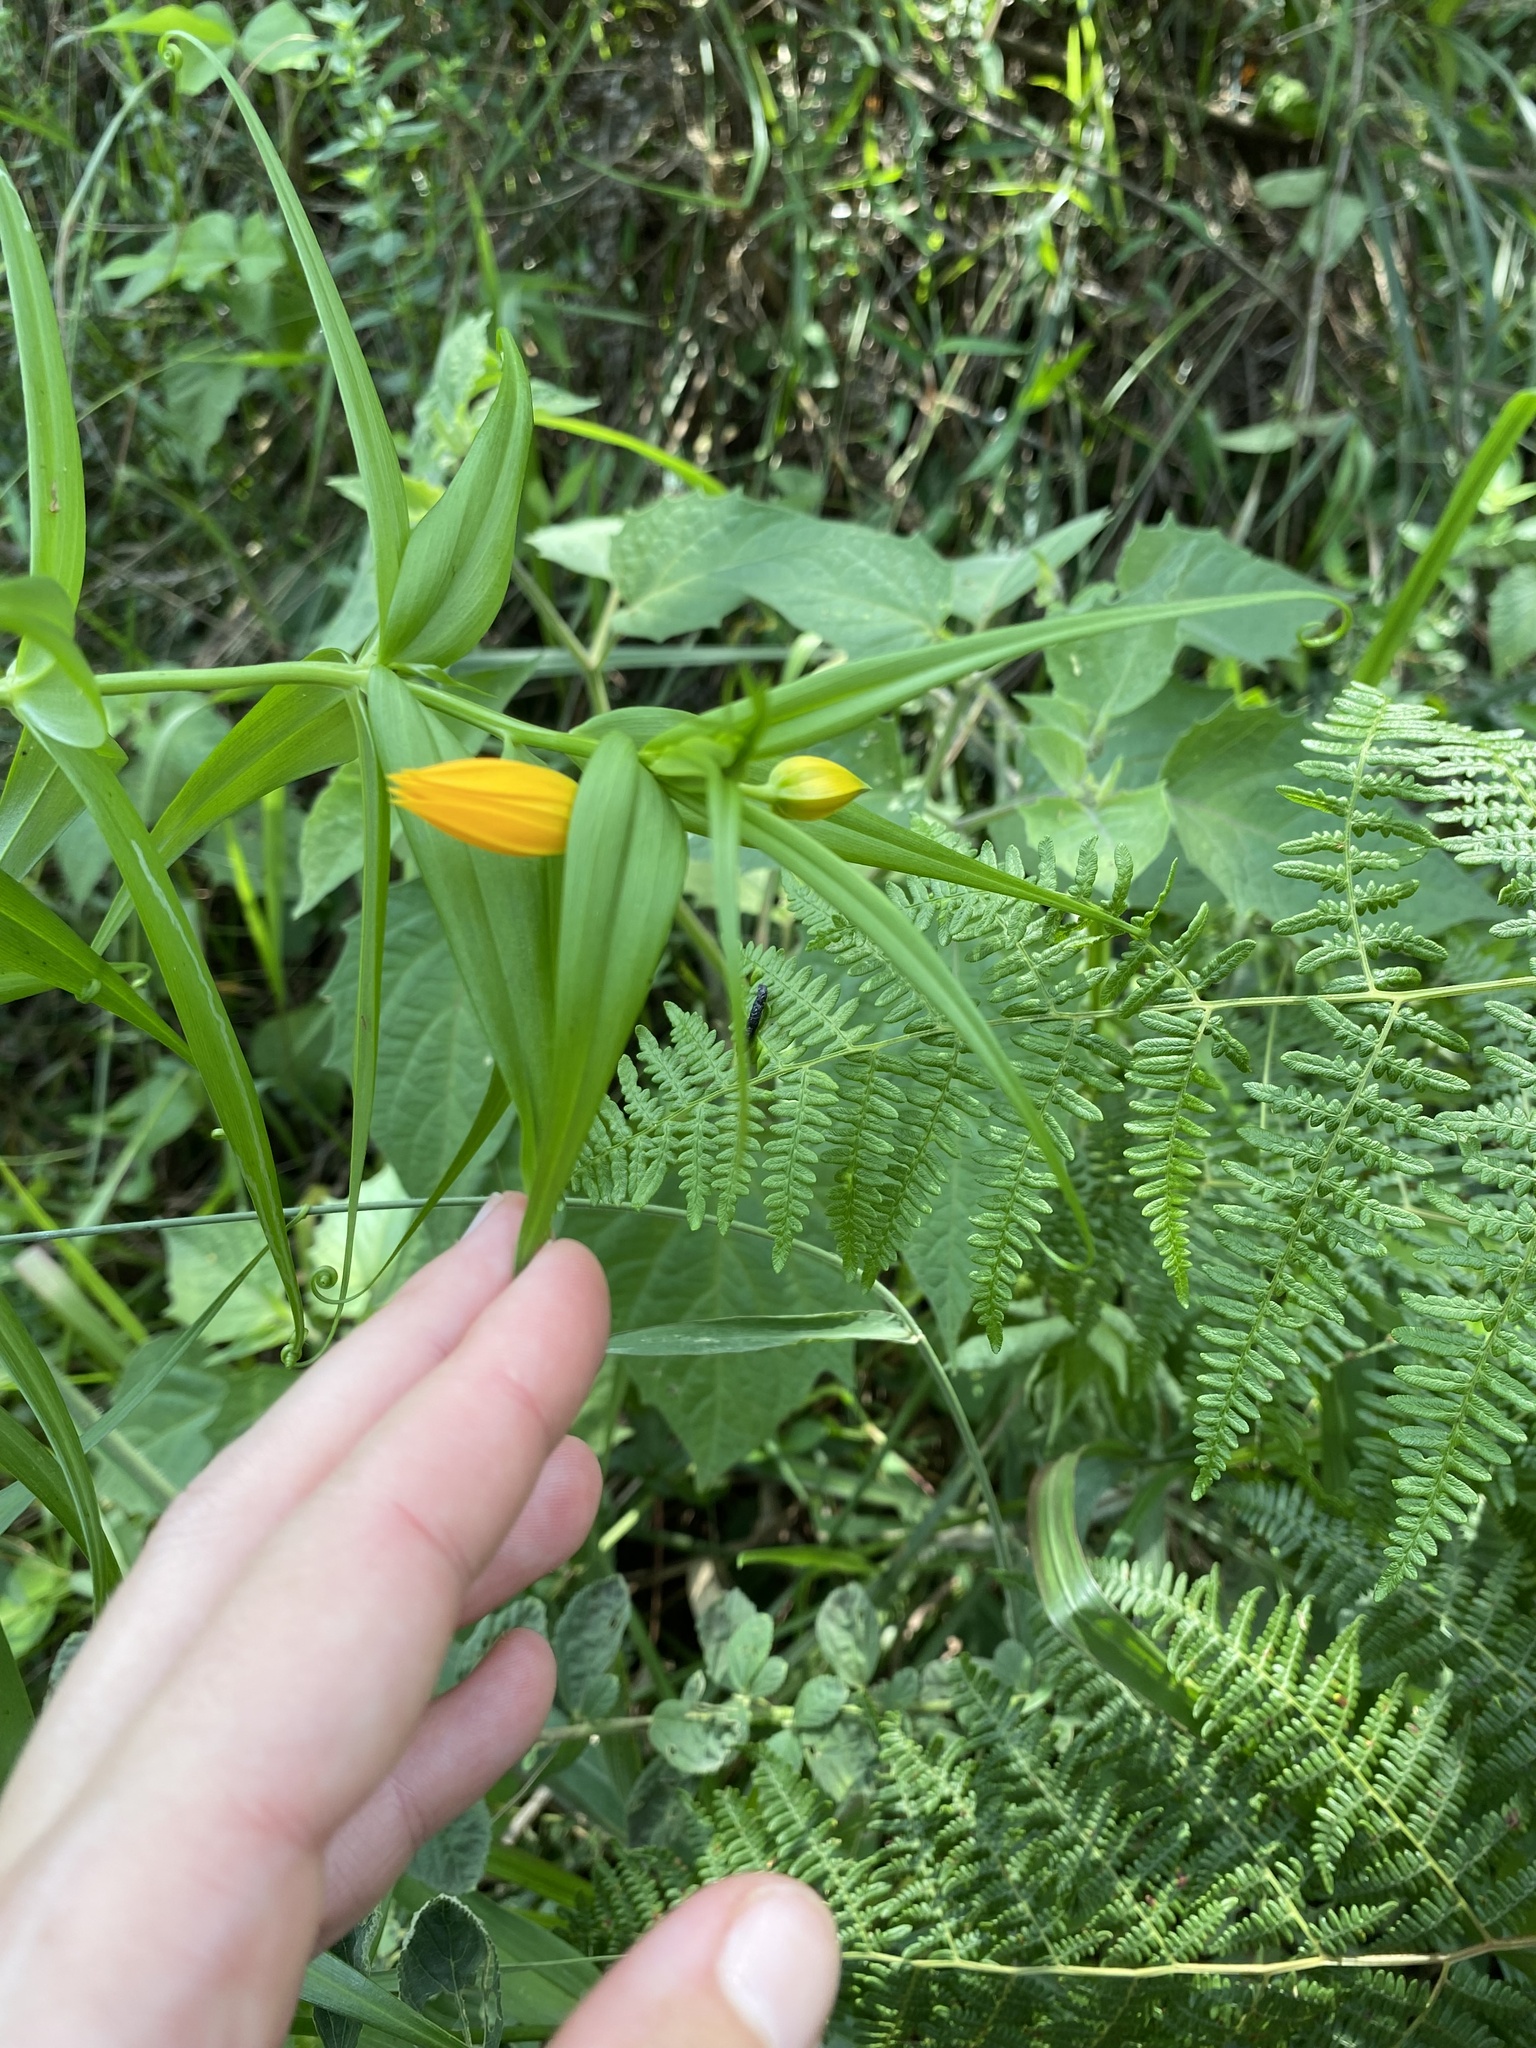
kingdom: Plantae
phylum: Tracheophyta
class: Liliopsida
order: Liliales
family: Colchicaceae
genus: Gloriosa
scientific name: Gloriosa modesta
